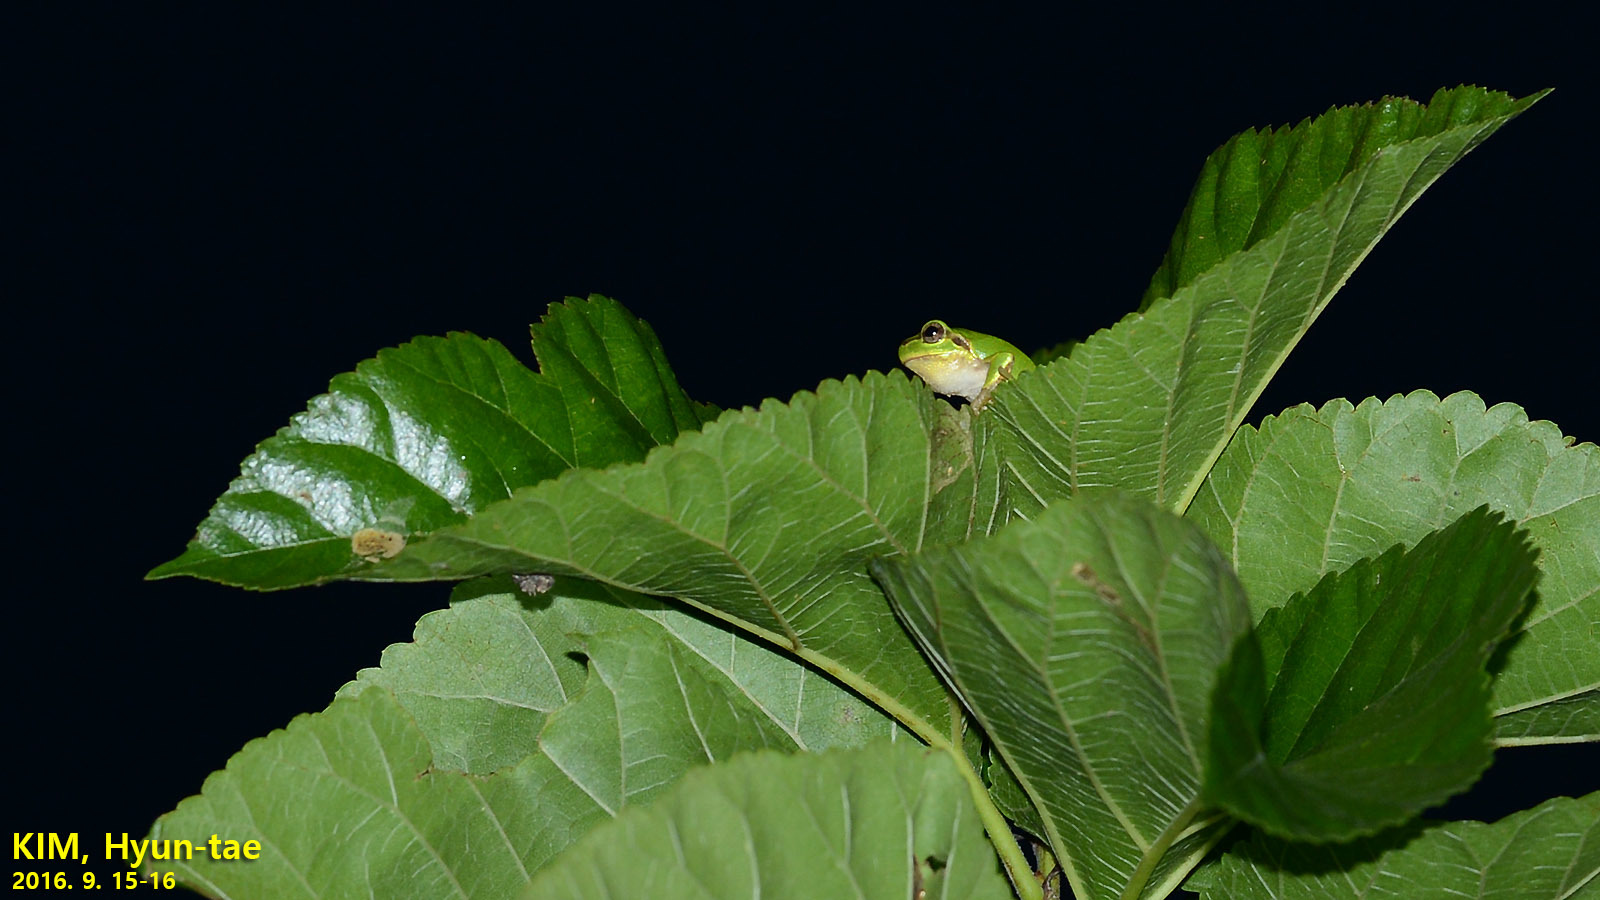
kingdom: Animalia
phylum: Chordata
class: Amphibia
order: Anura
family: Hylidae
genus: Dryophytes
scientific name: Dryophytes japonicus
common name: Japanese treefrog
